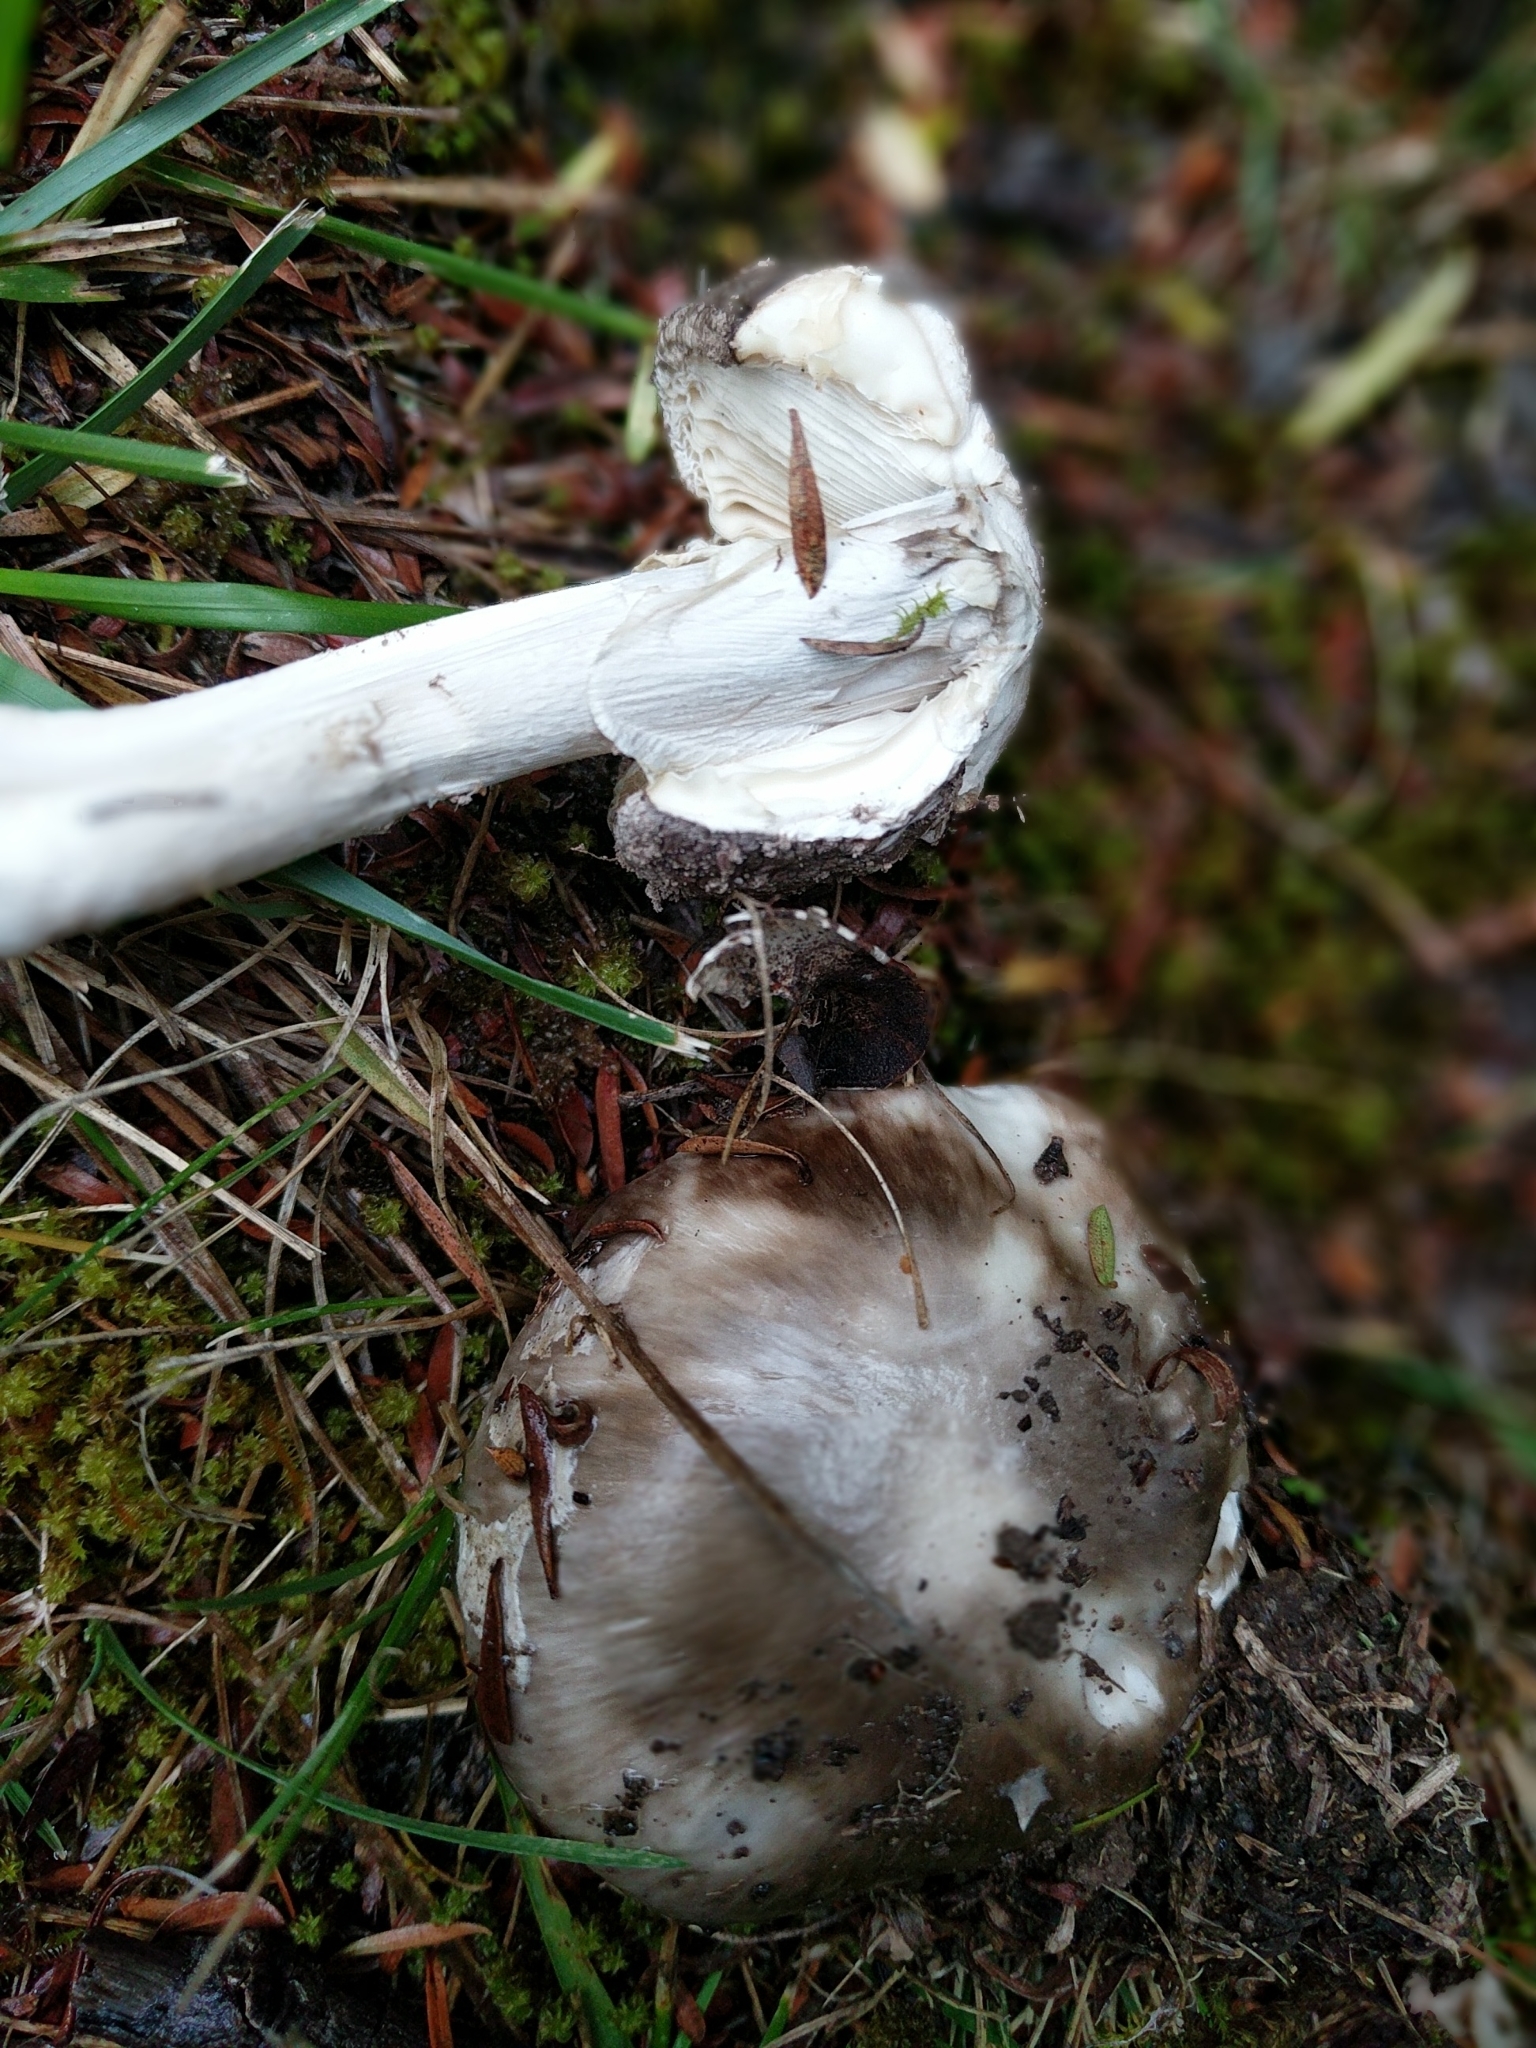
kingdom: Fungi
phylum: Basidiomycota
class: Agaricomycetes
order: Agaricales
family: Amanitaceae
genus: Amanita
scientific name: Amanita nothofagi
